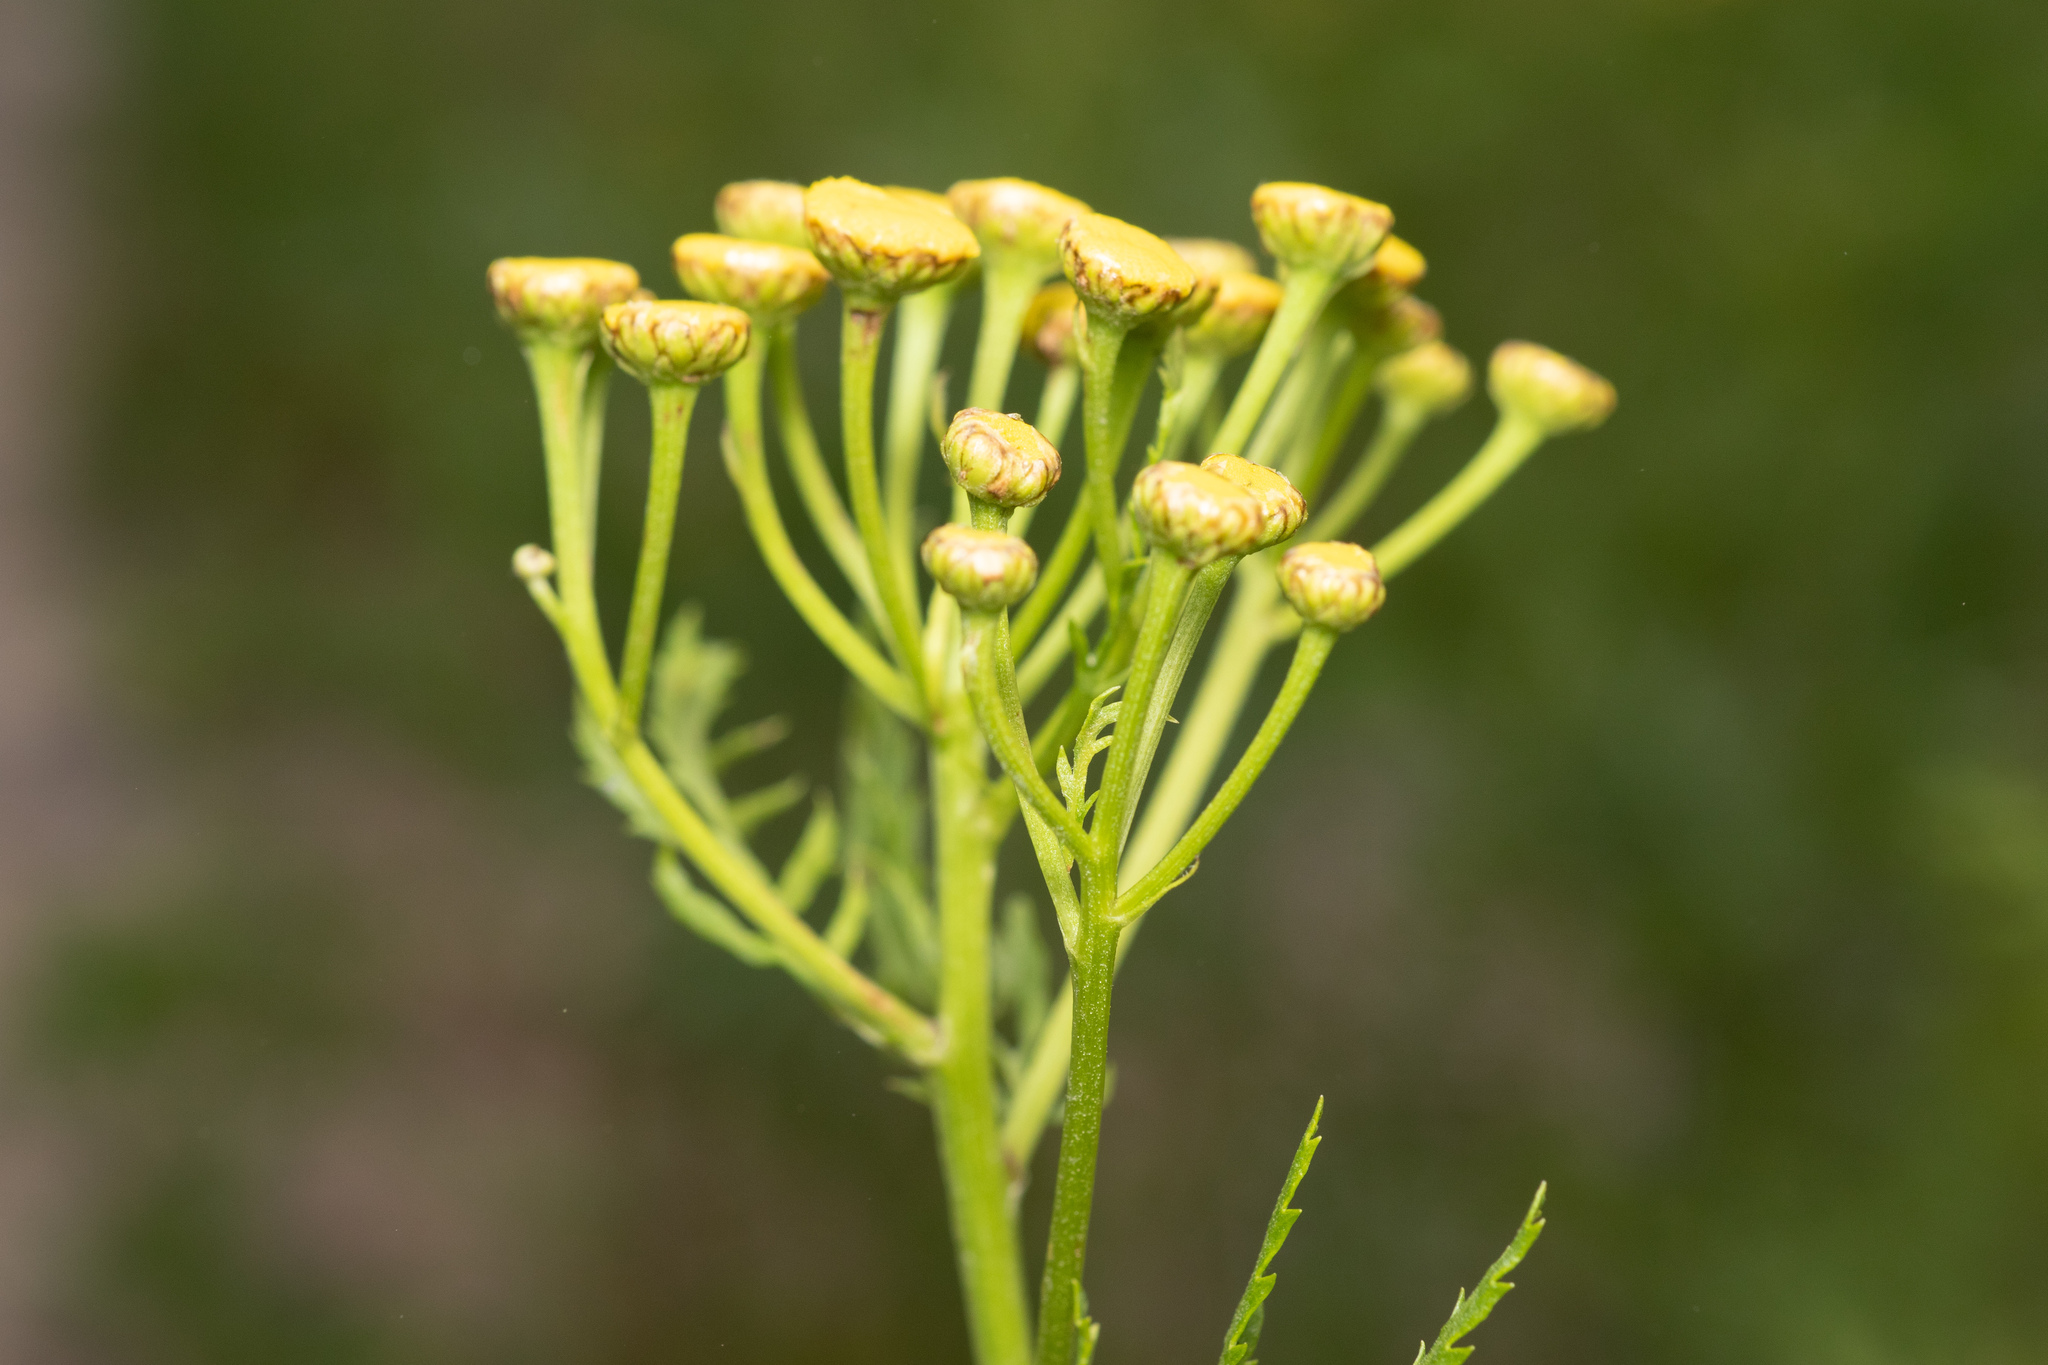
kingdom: Plantae
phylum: Tracheophyta
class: Magnoliopsida
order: Asterales
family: Asteraceae
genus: Tanacetum
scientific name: Tanacetum vulgare
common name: Common tansy
